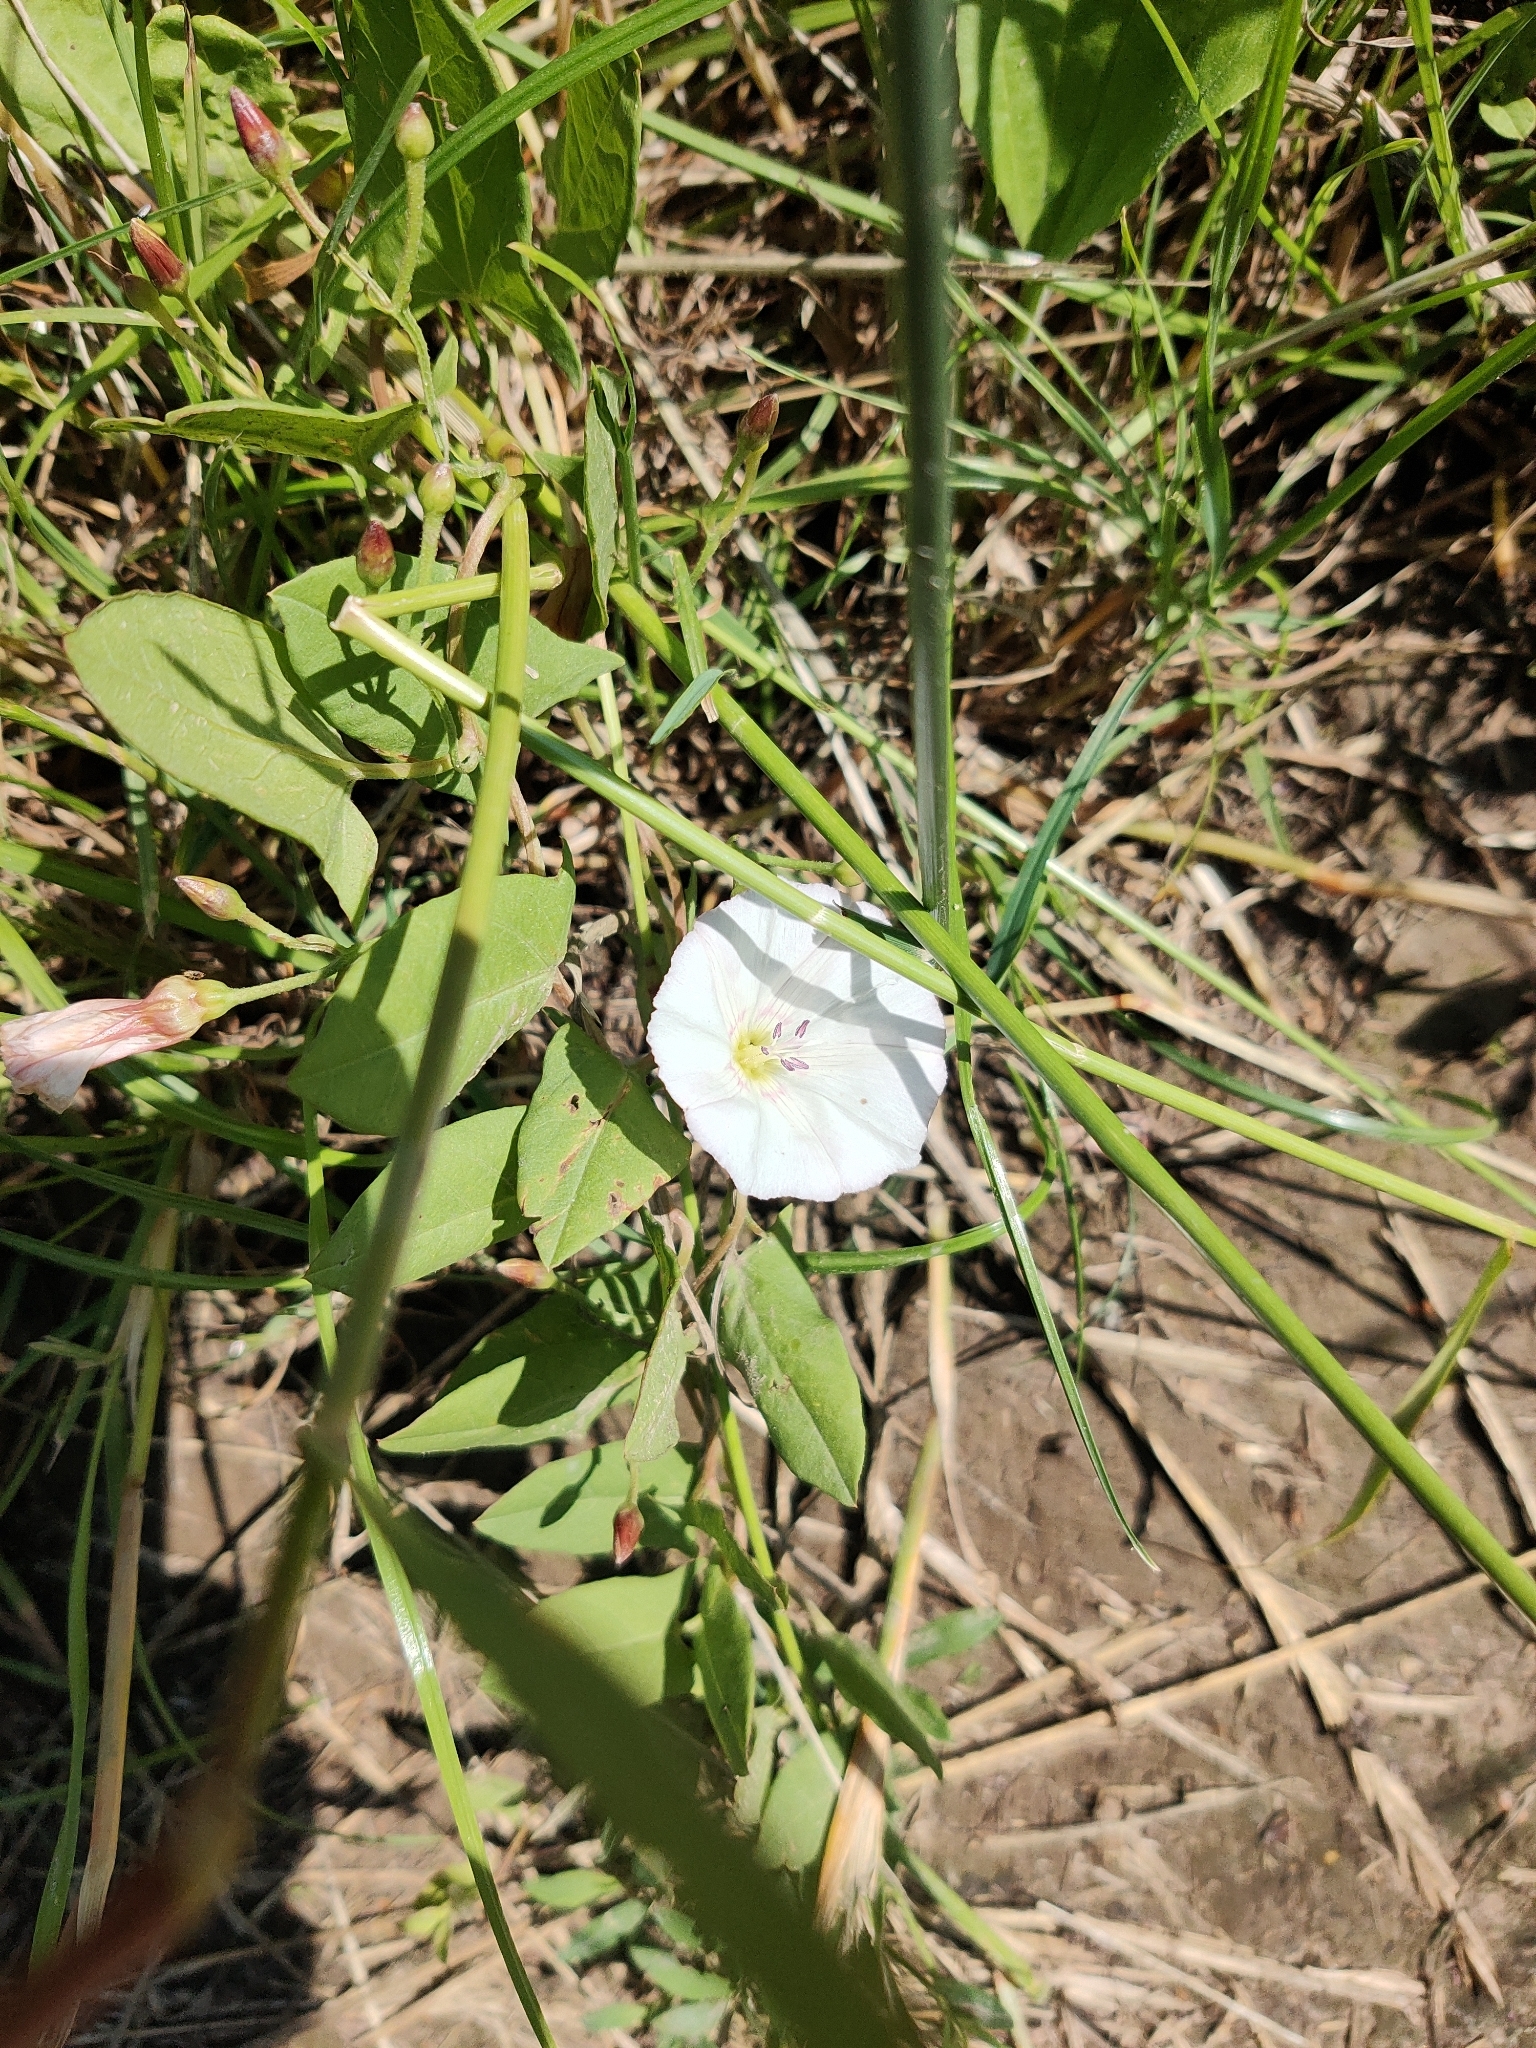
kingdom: Plantae
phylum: Tracheophyta
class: Magnoliopsida
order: Solanales
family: Convolvulaceae
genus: Convolvulus
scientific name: Convolvulus arvensis
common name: Field bindweed
